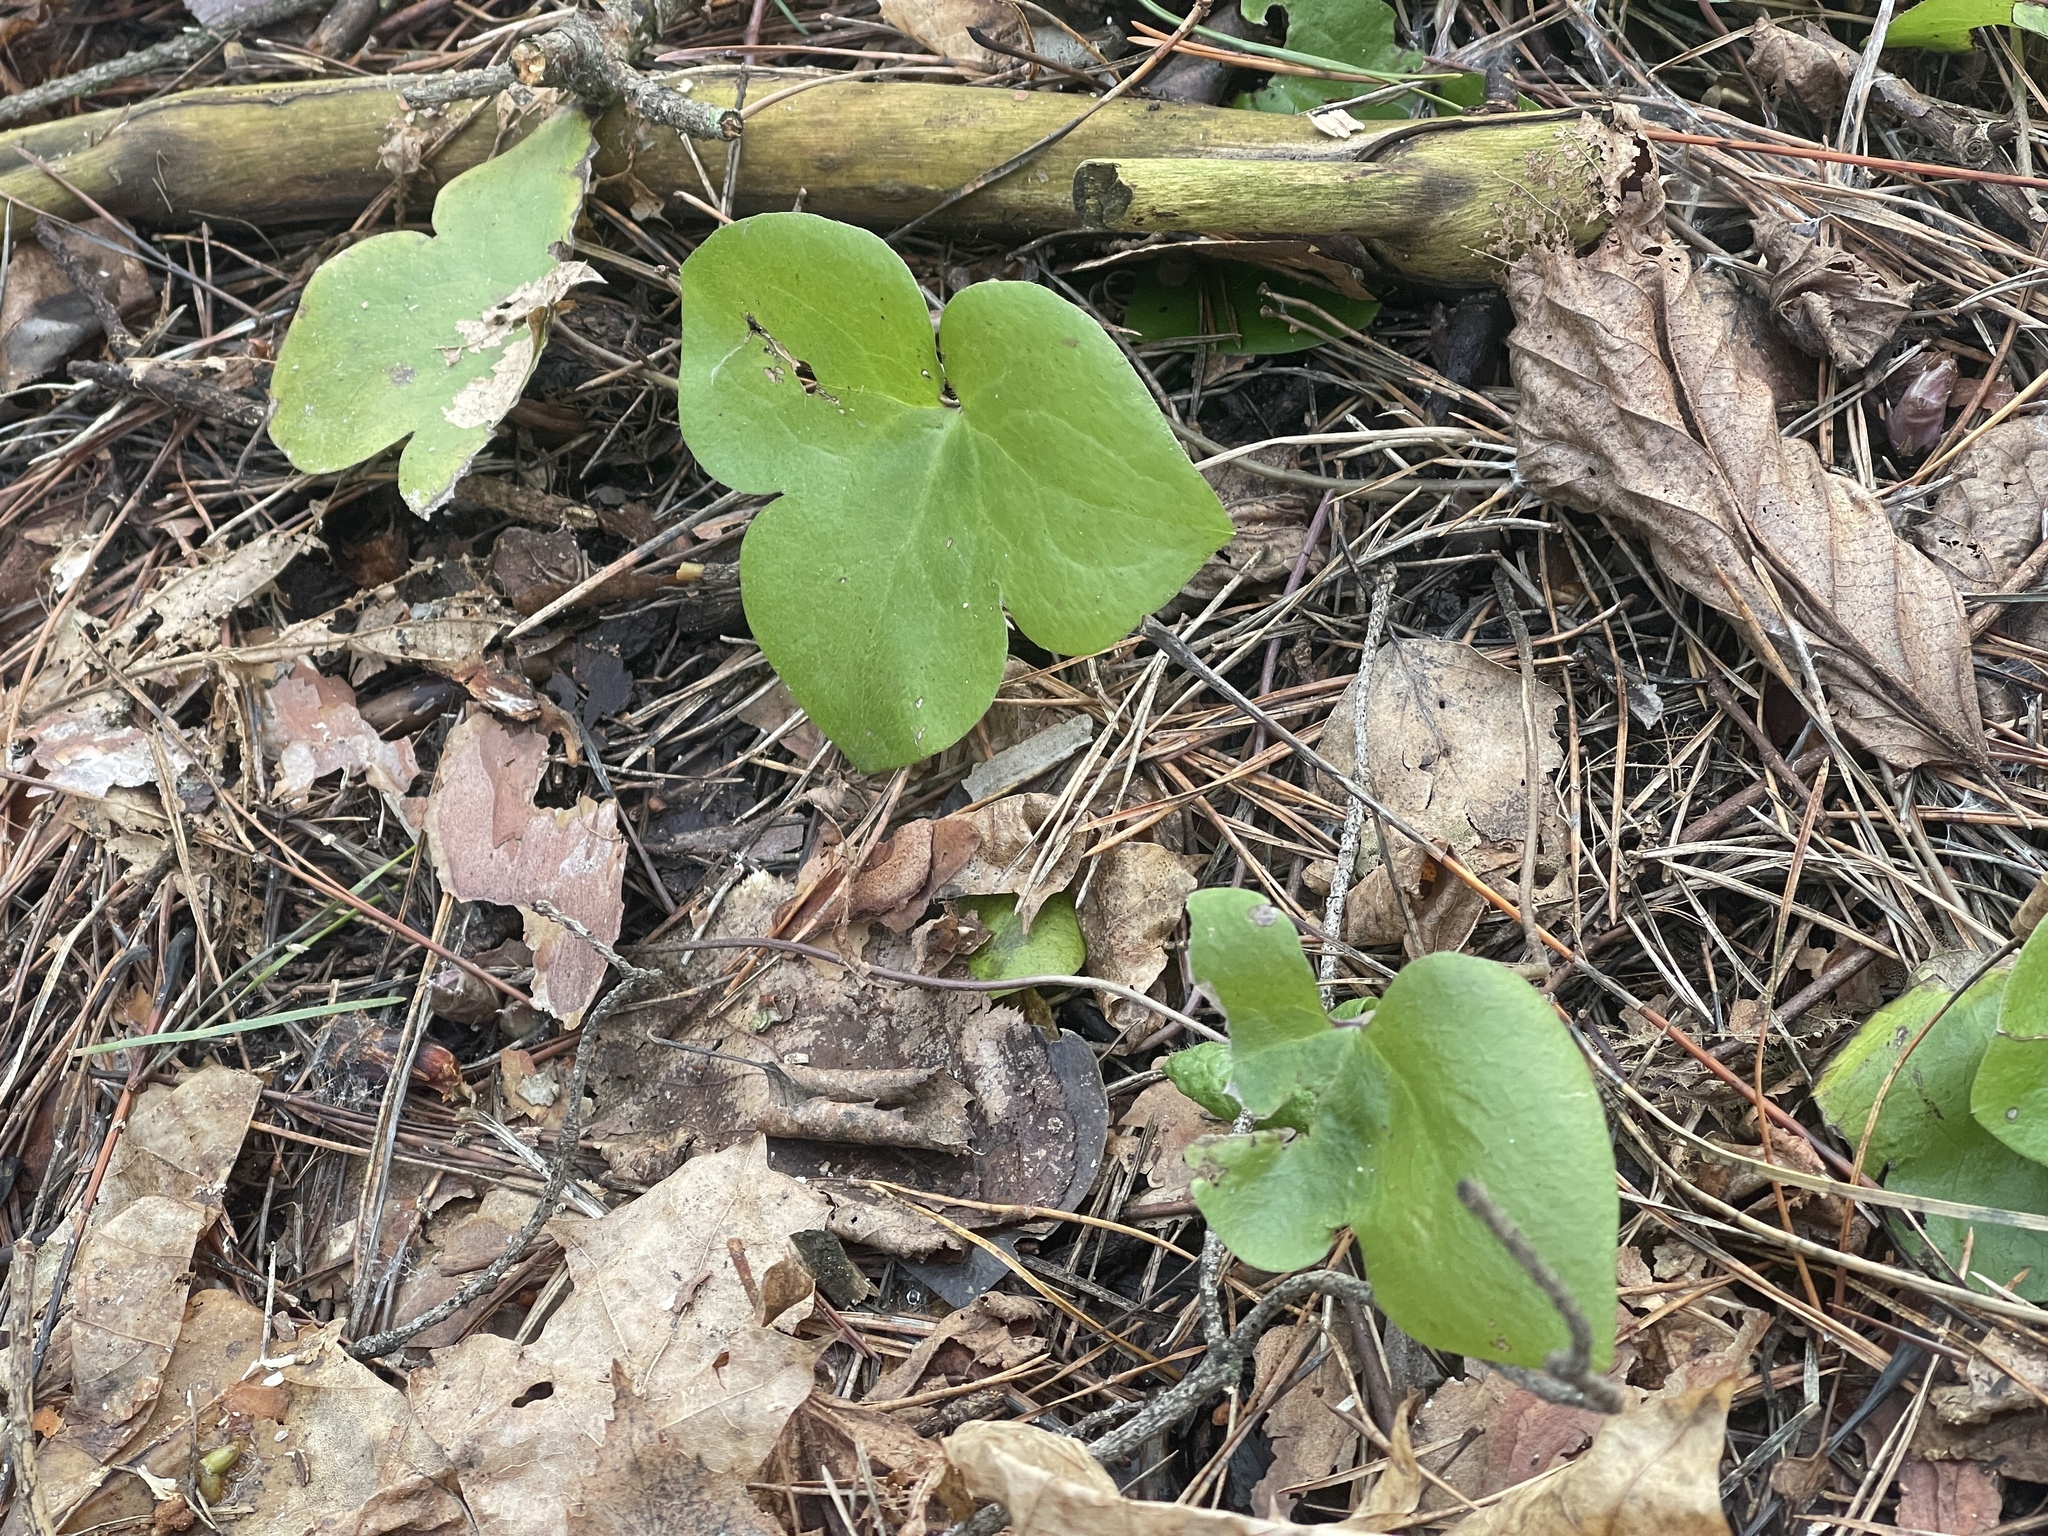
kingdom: Plantae
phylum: Tracheophyta
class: Magnoliopsida
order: Ranunculales
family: Ranunculaceae
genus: Hepatica
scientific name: Hepatica nobilis
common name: Liverleaf
